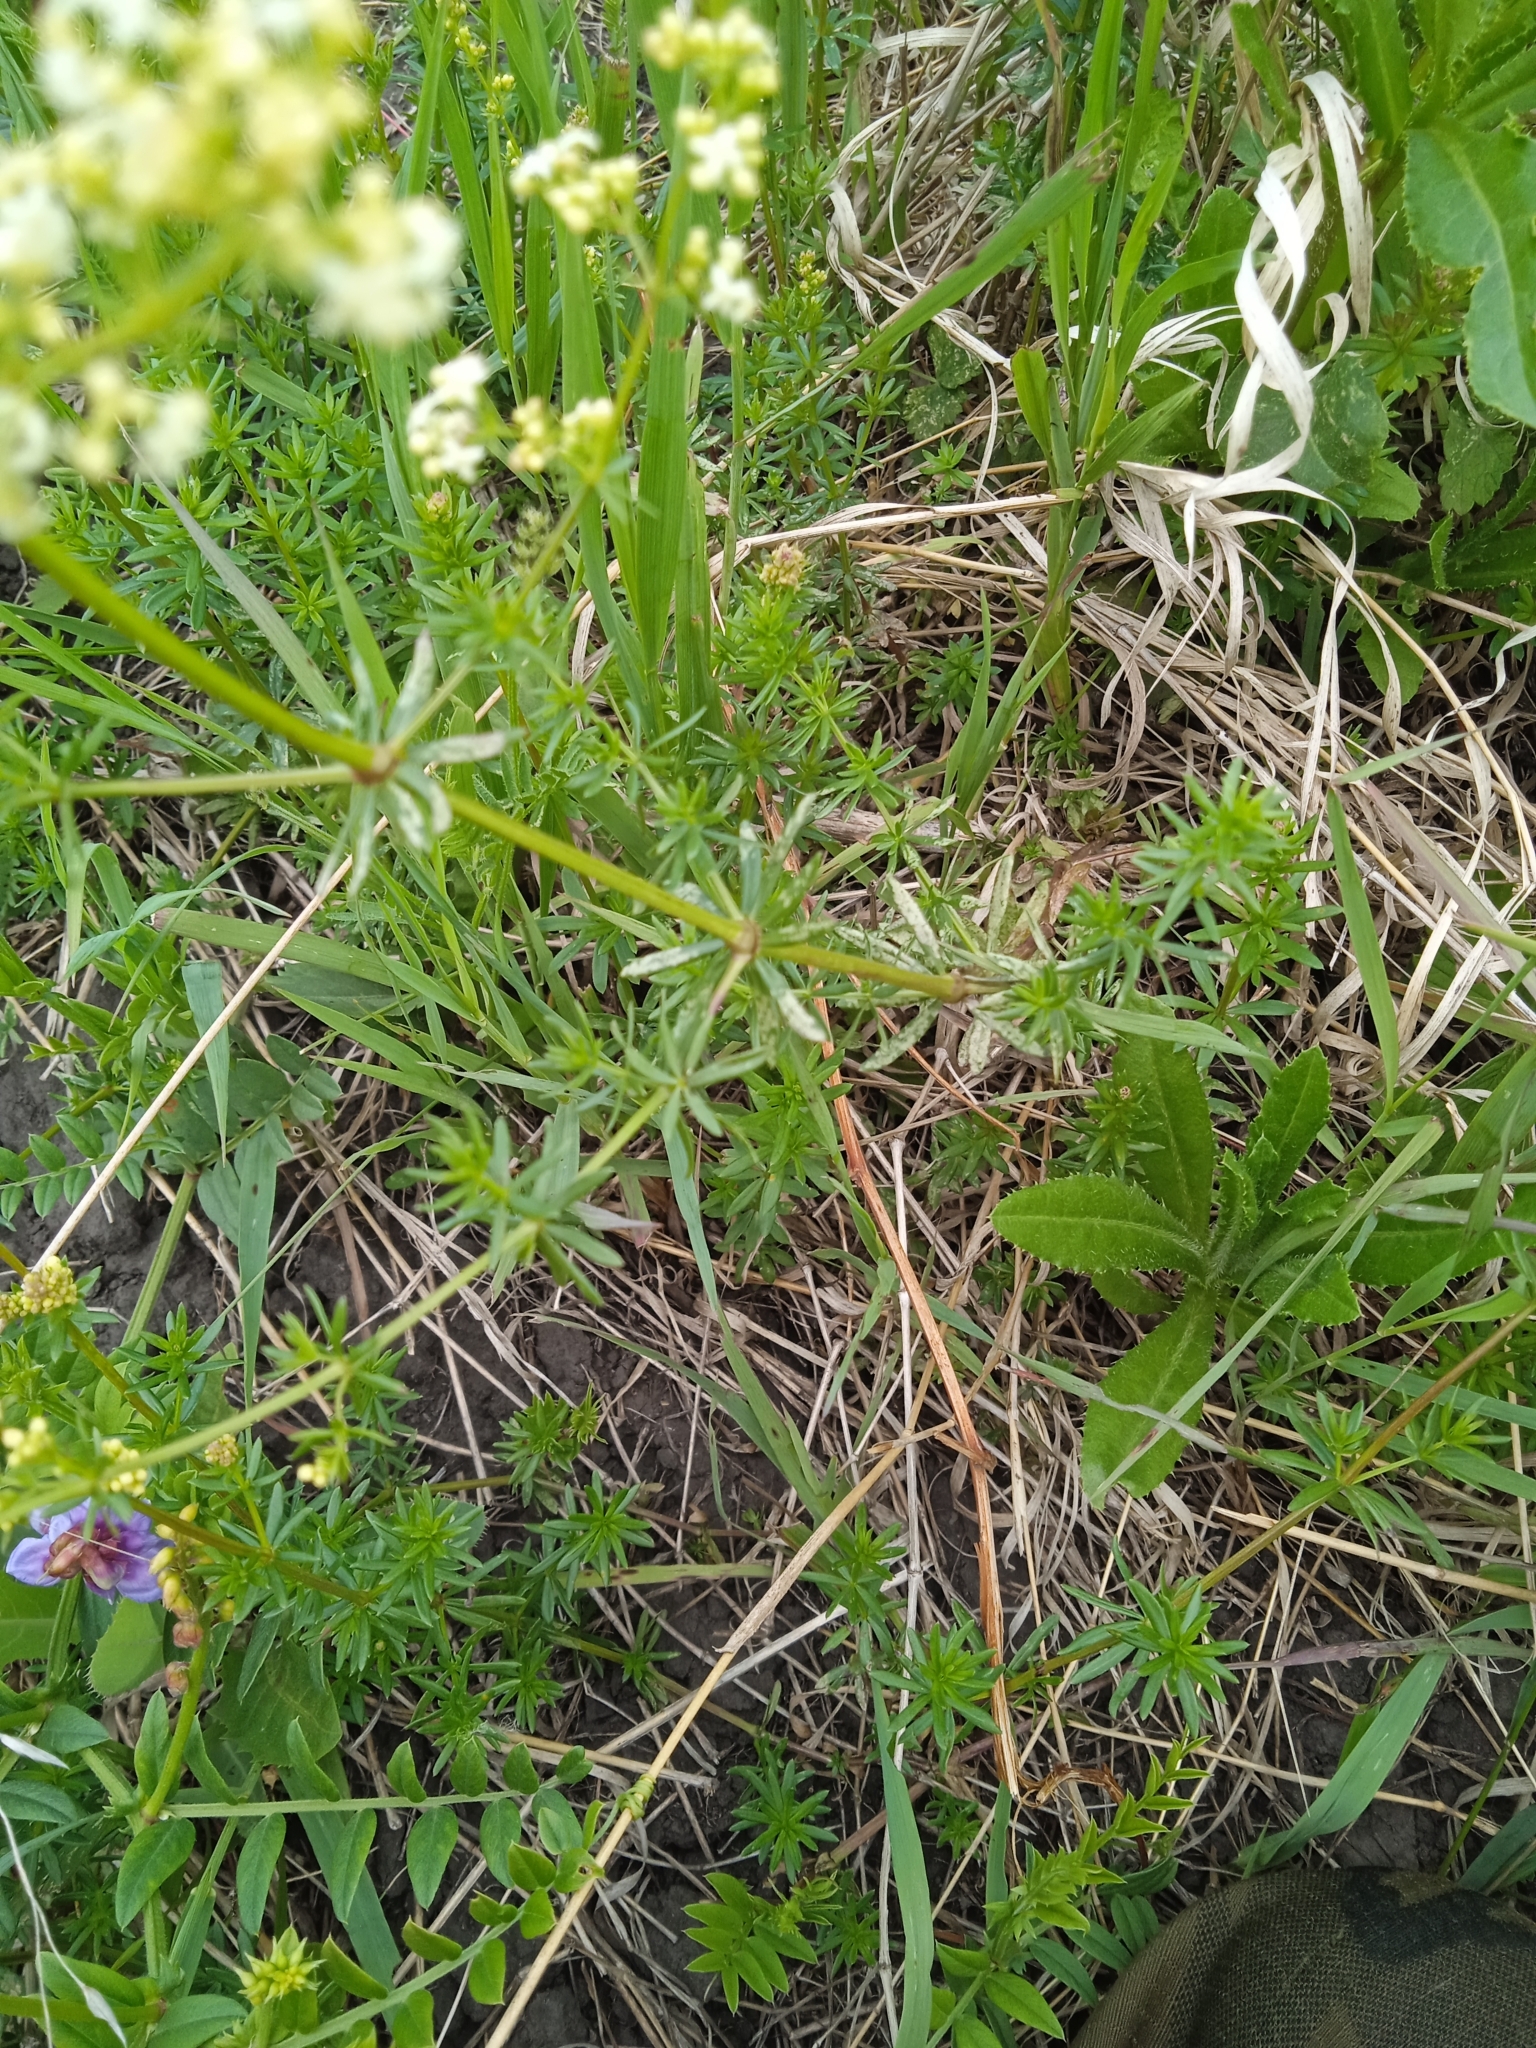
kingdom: Plantae
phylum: Tracheophyta
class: Magnoliopsida
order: Gentianales
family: Rubiaceae
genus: Galium
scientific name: Galium mollugo
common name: Hedge bedstraw
